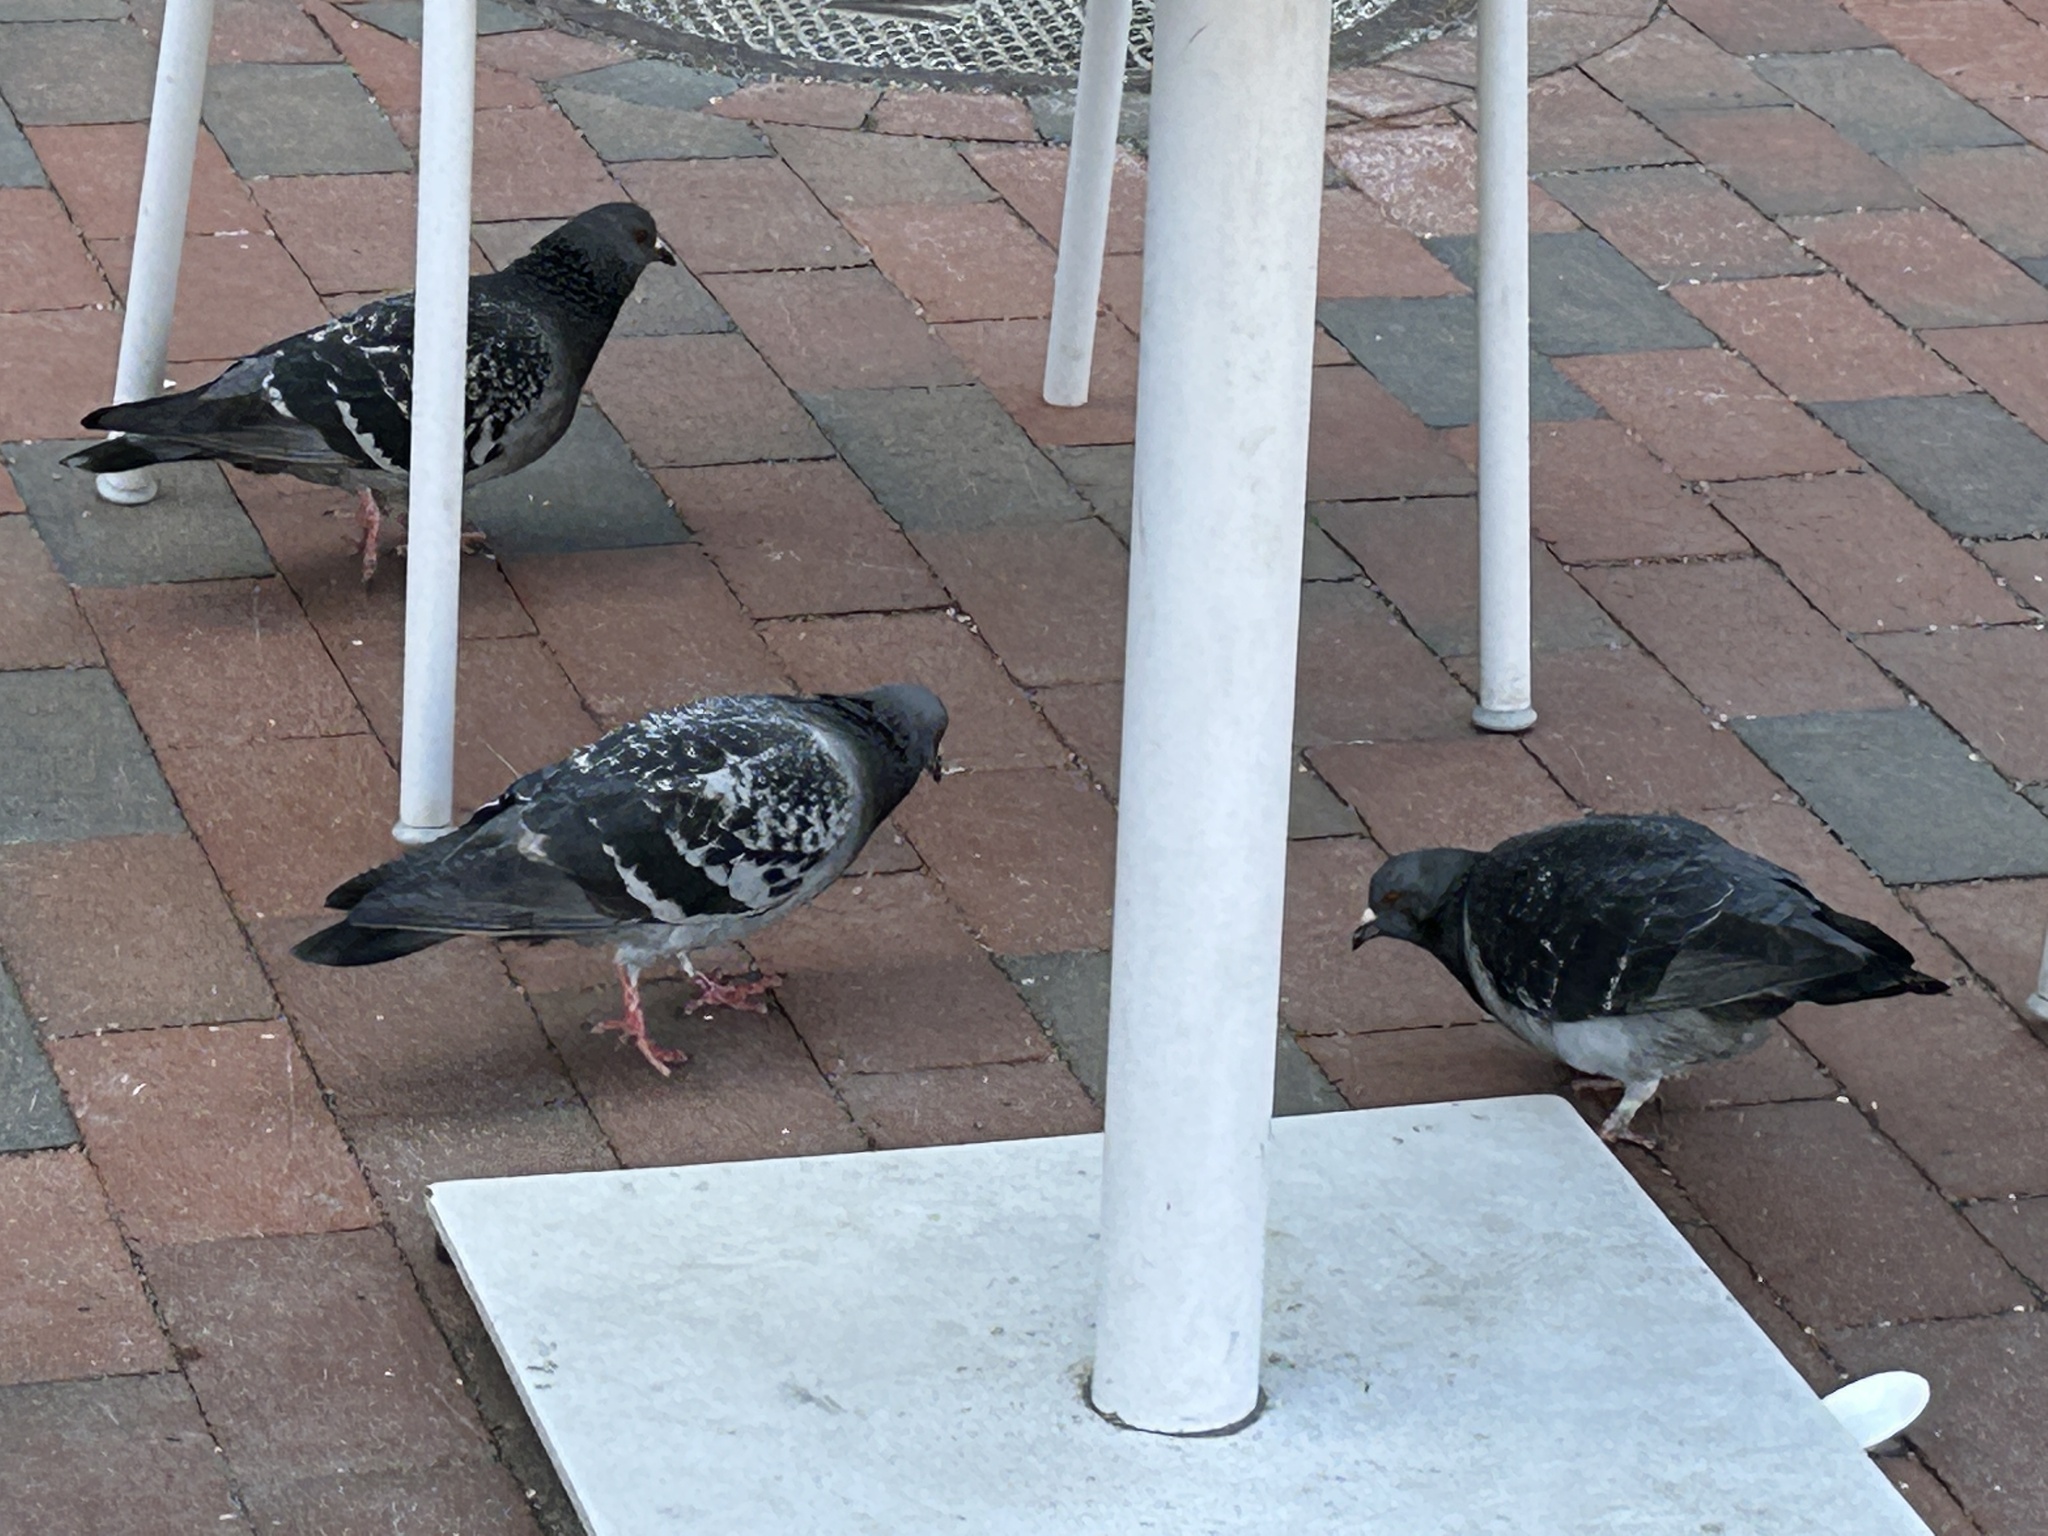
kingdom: Animalia
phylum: Chordata
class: Aves
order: Columbiformes
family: Columbidae
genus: Columba
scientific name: Columba livia
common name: Rock pigeon
